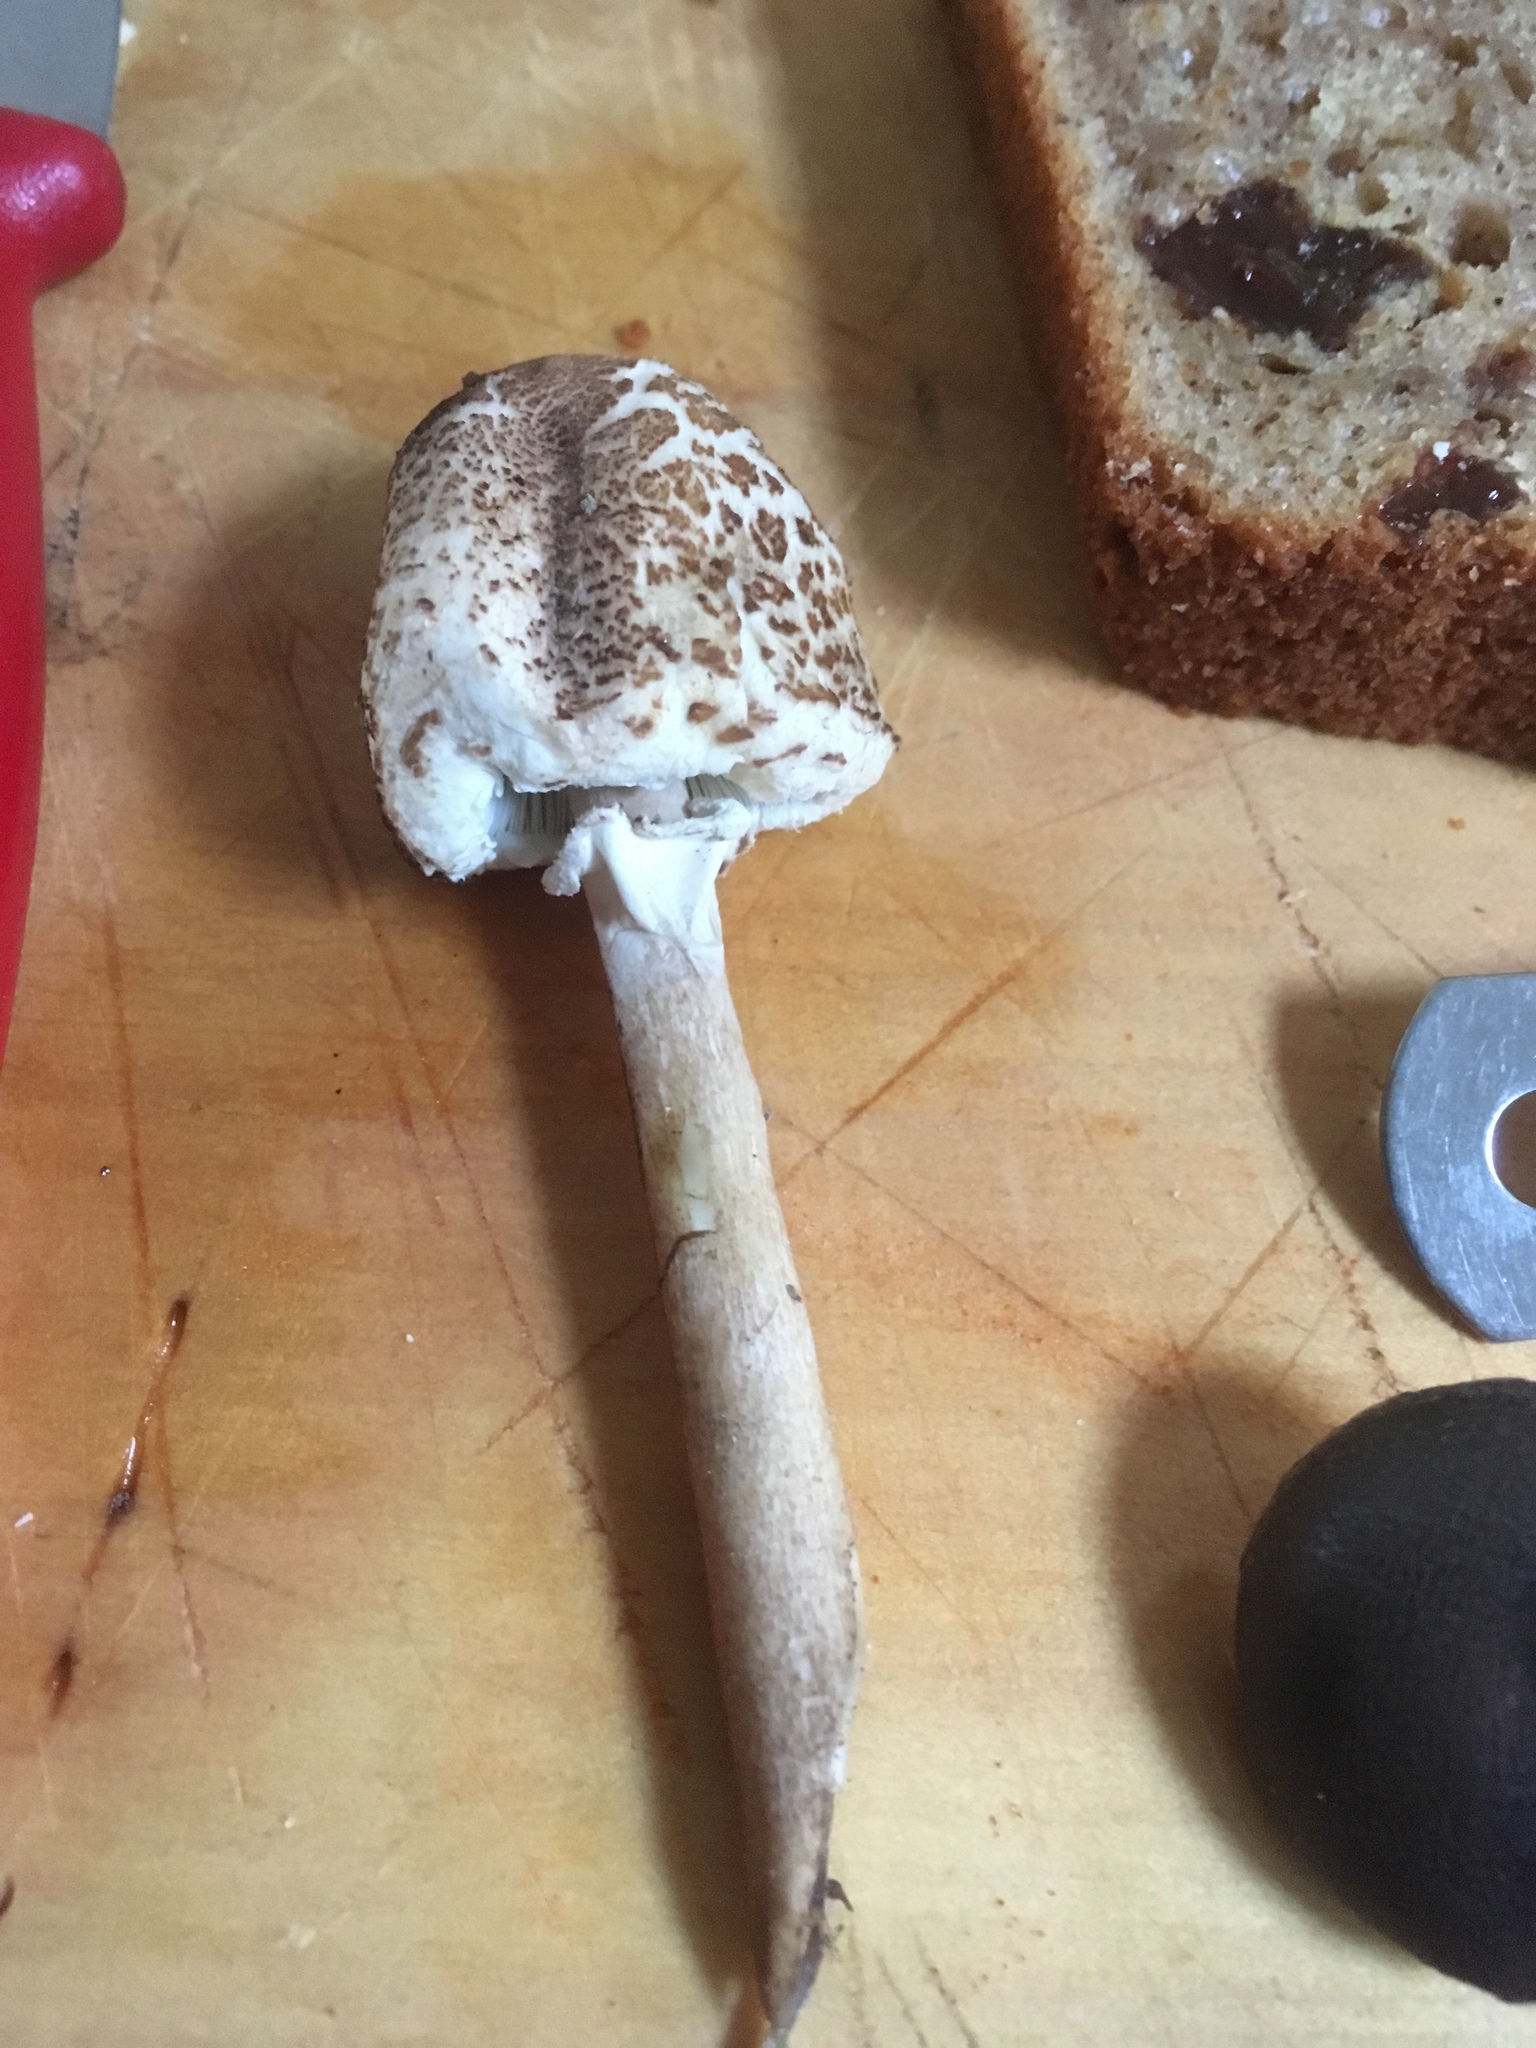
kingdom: Fungi
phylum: Basidiomycota
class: Agaricomycetes
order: Agaricales
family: Agaricaceae
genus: Macrolepiota
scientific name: Macrolepiota clelandii
